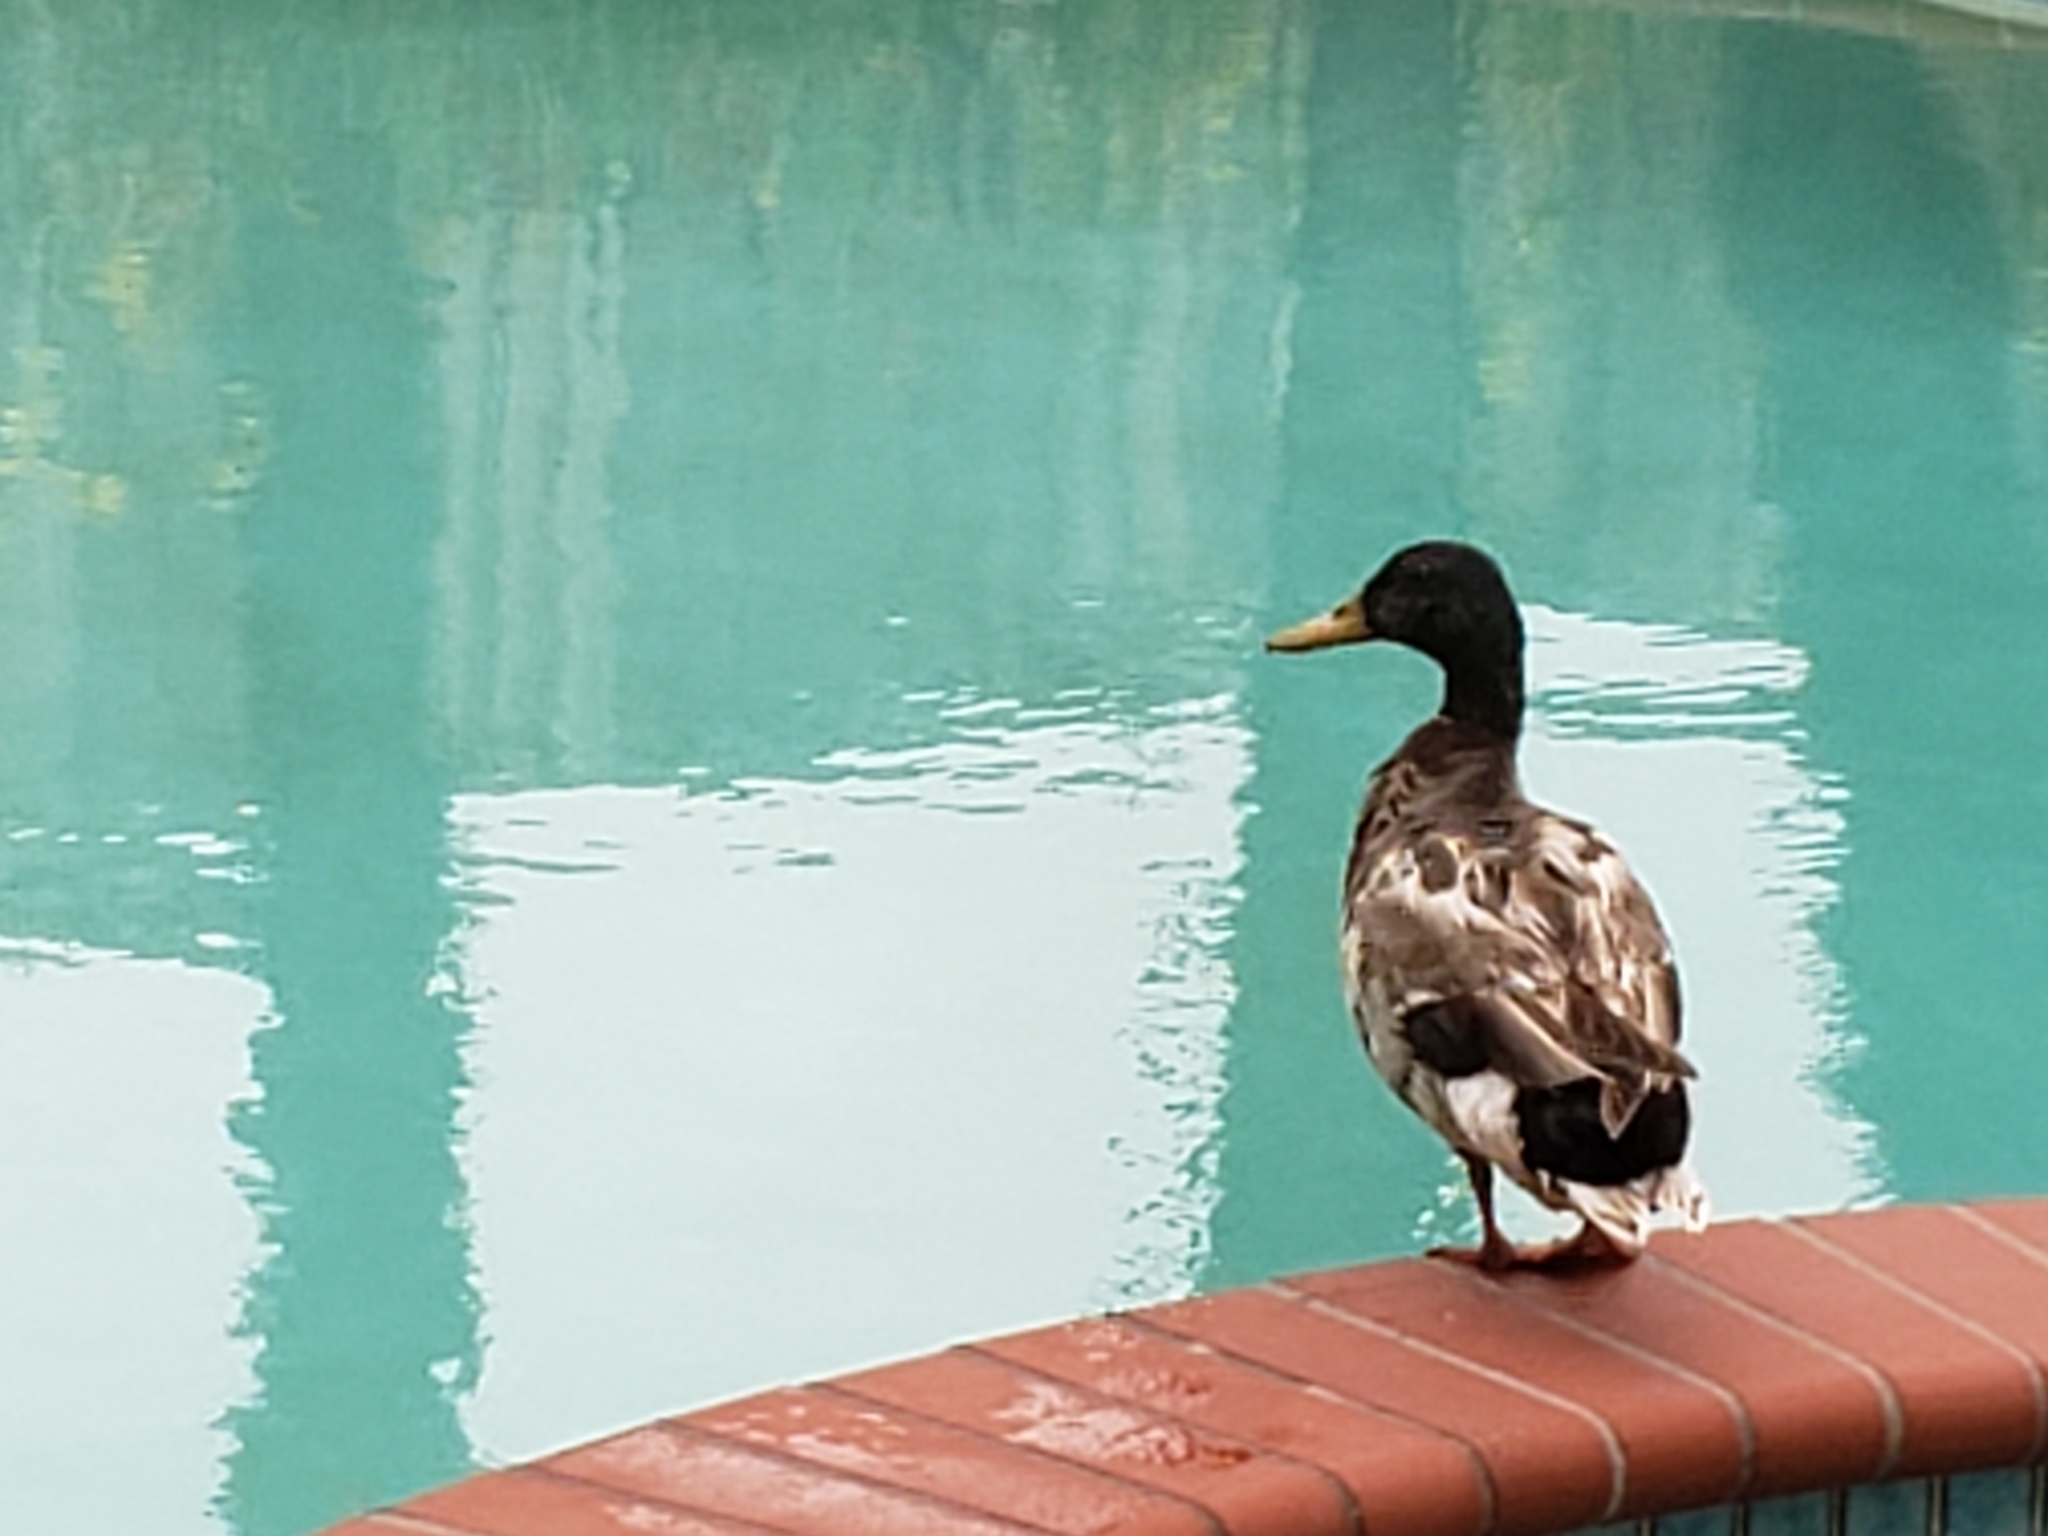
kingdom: Animalia
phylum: Chordata
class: Aves
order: Anseriformes
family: Anatidae
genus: Anas
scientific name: Anas platyrhynchos
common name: Mallard
